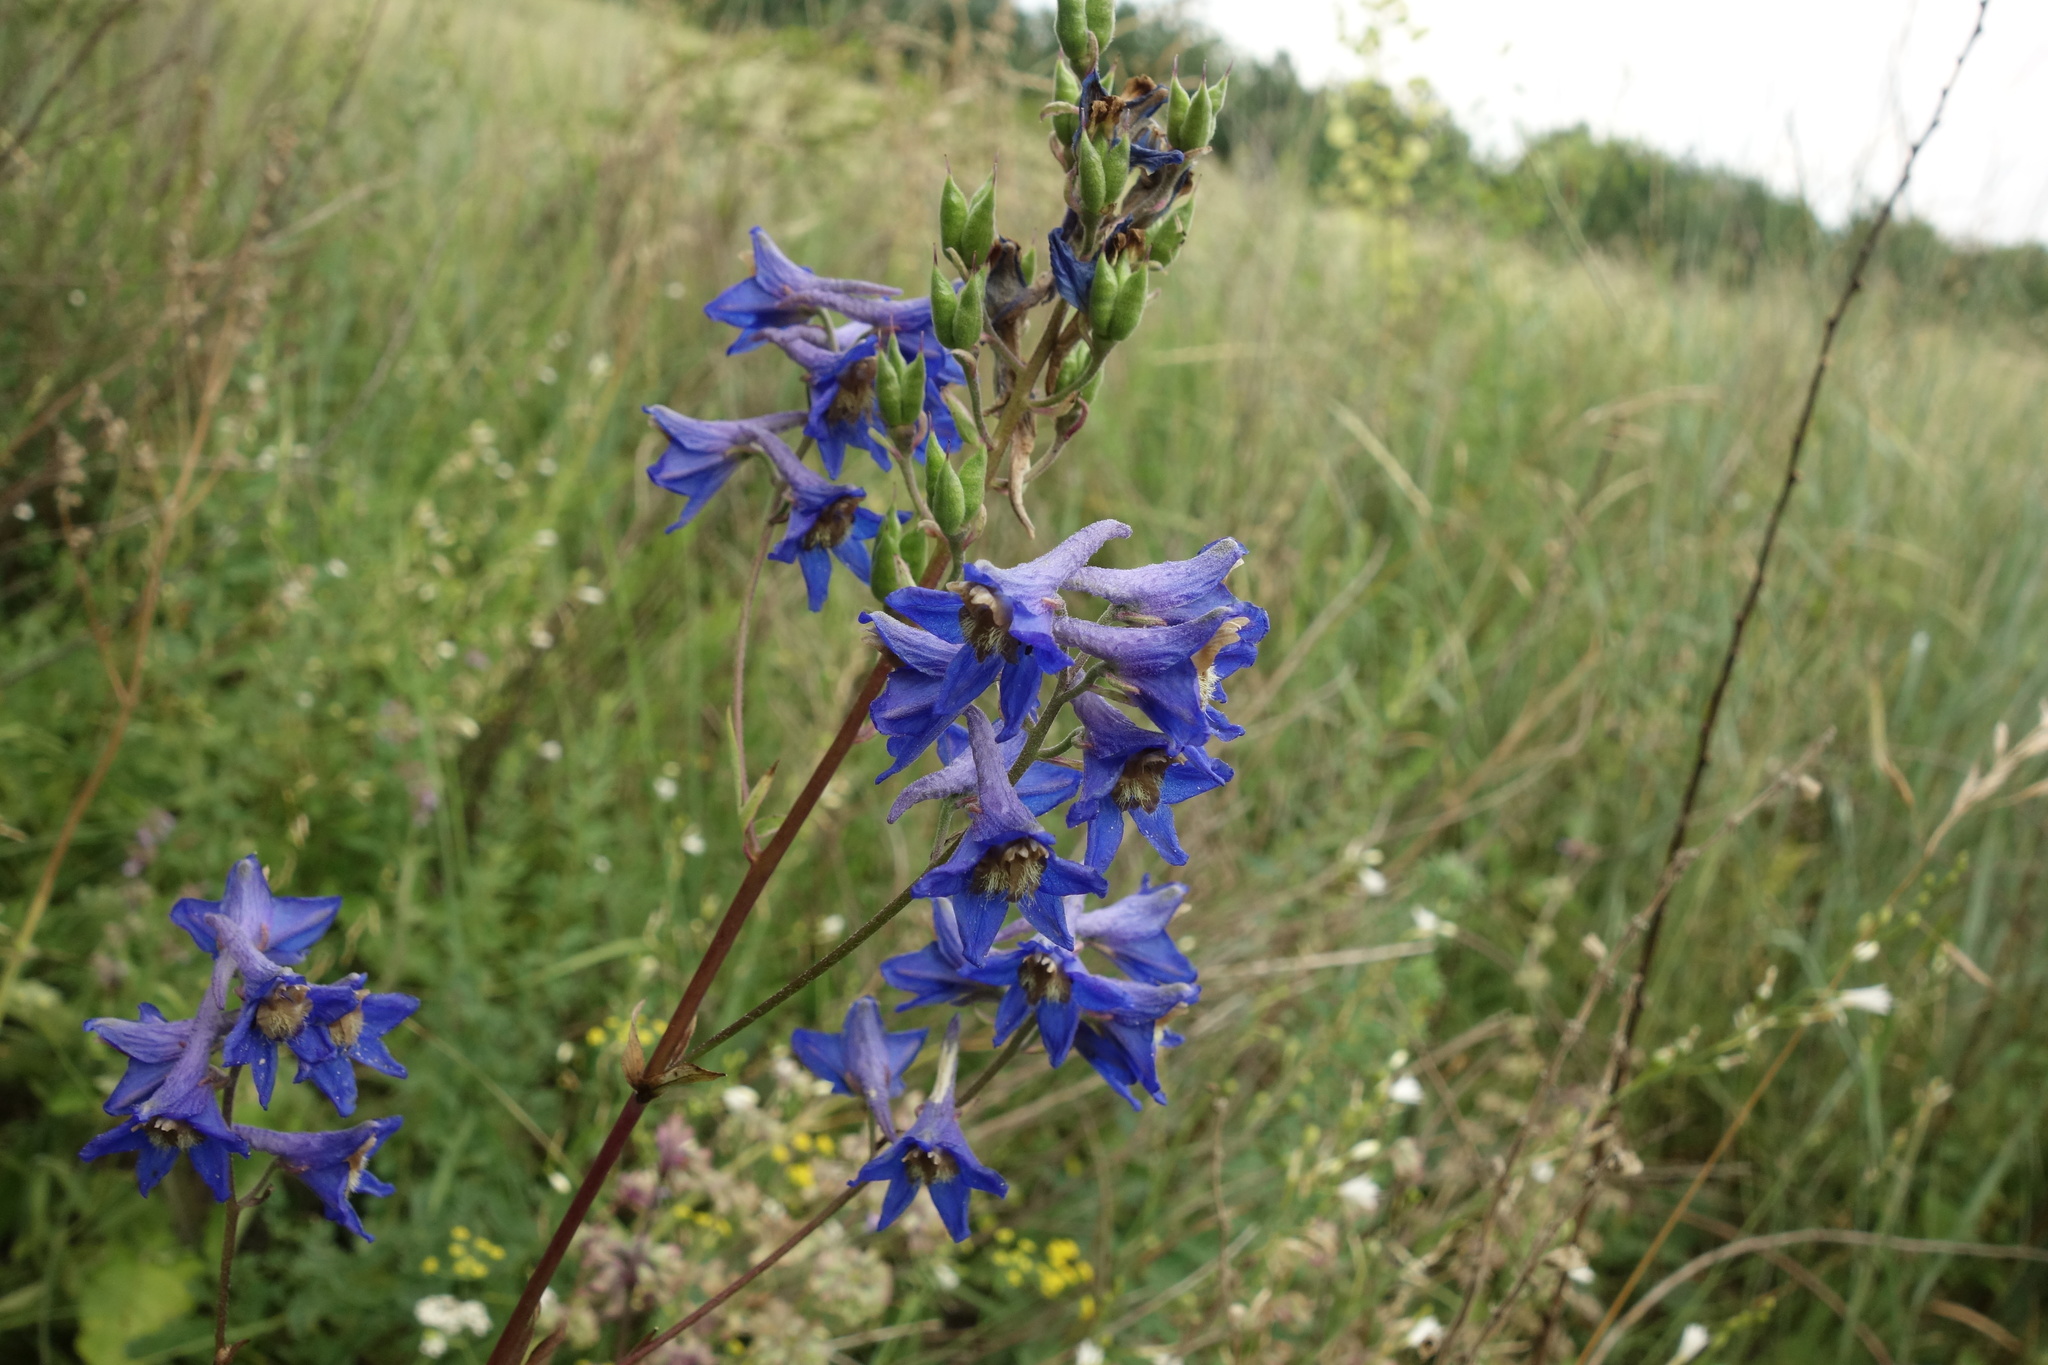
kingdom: Plantae
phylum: Tracheophyta
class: Magnoliopsida
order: Ranunculales
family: Ranunculaceae
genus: Delphinium
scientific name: Delphinium cuneatum
